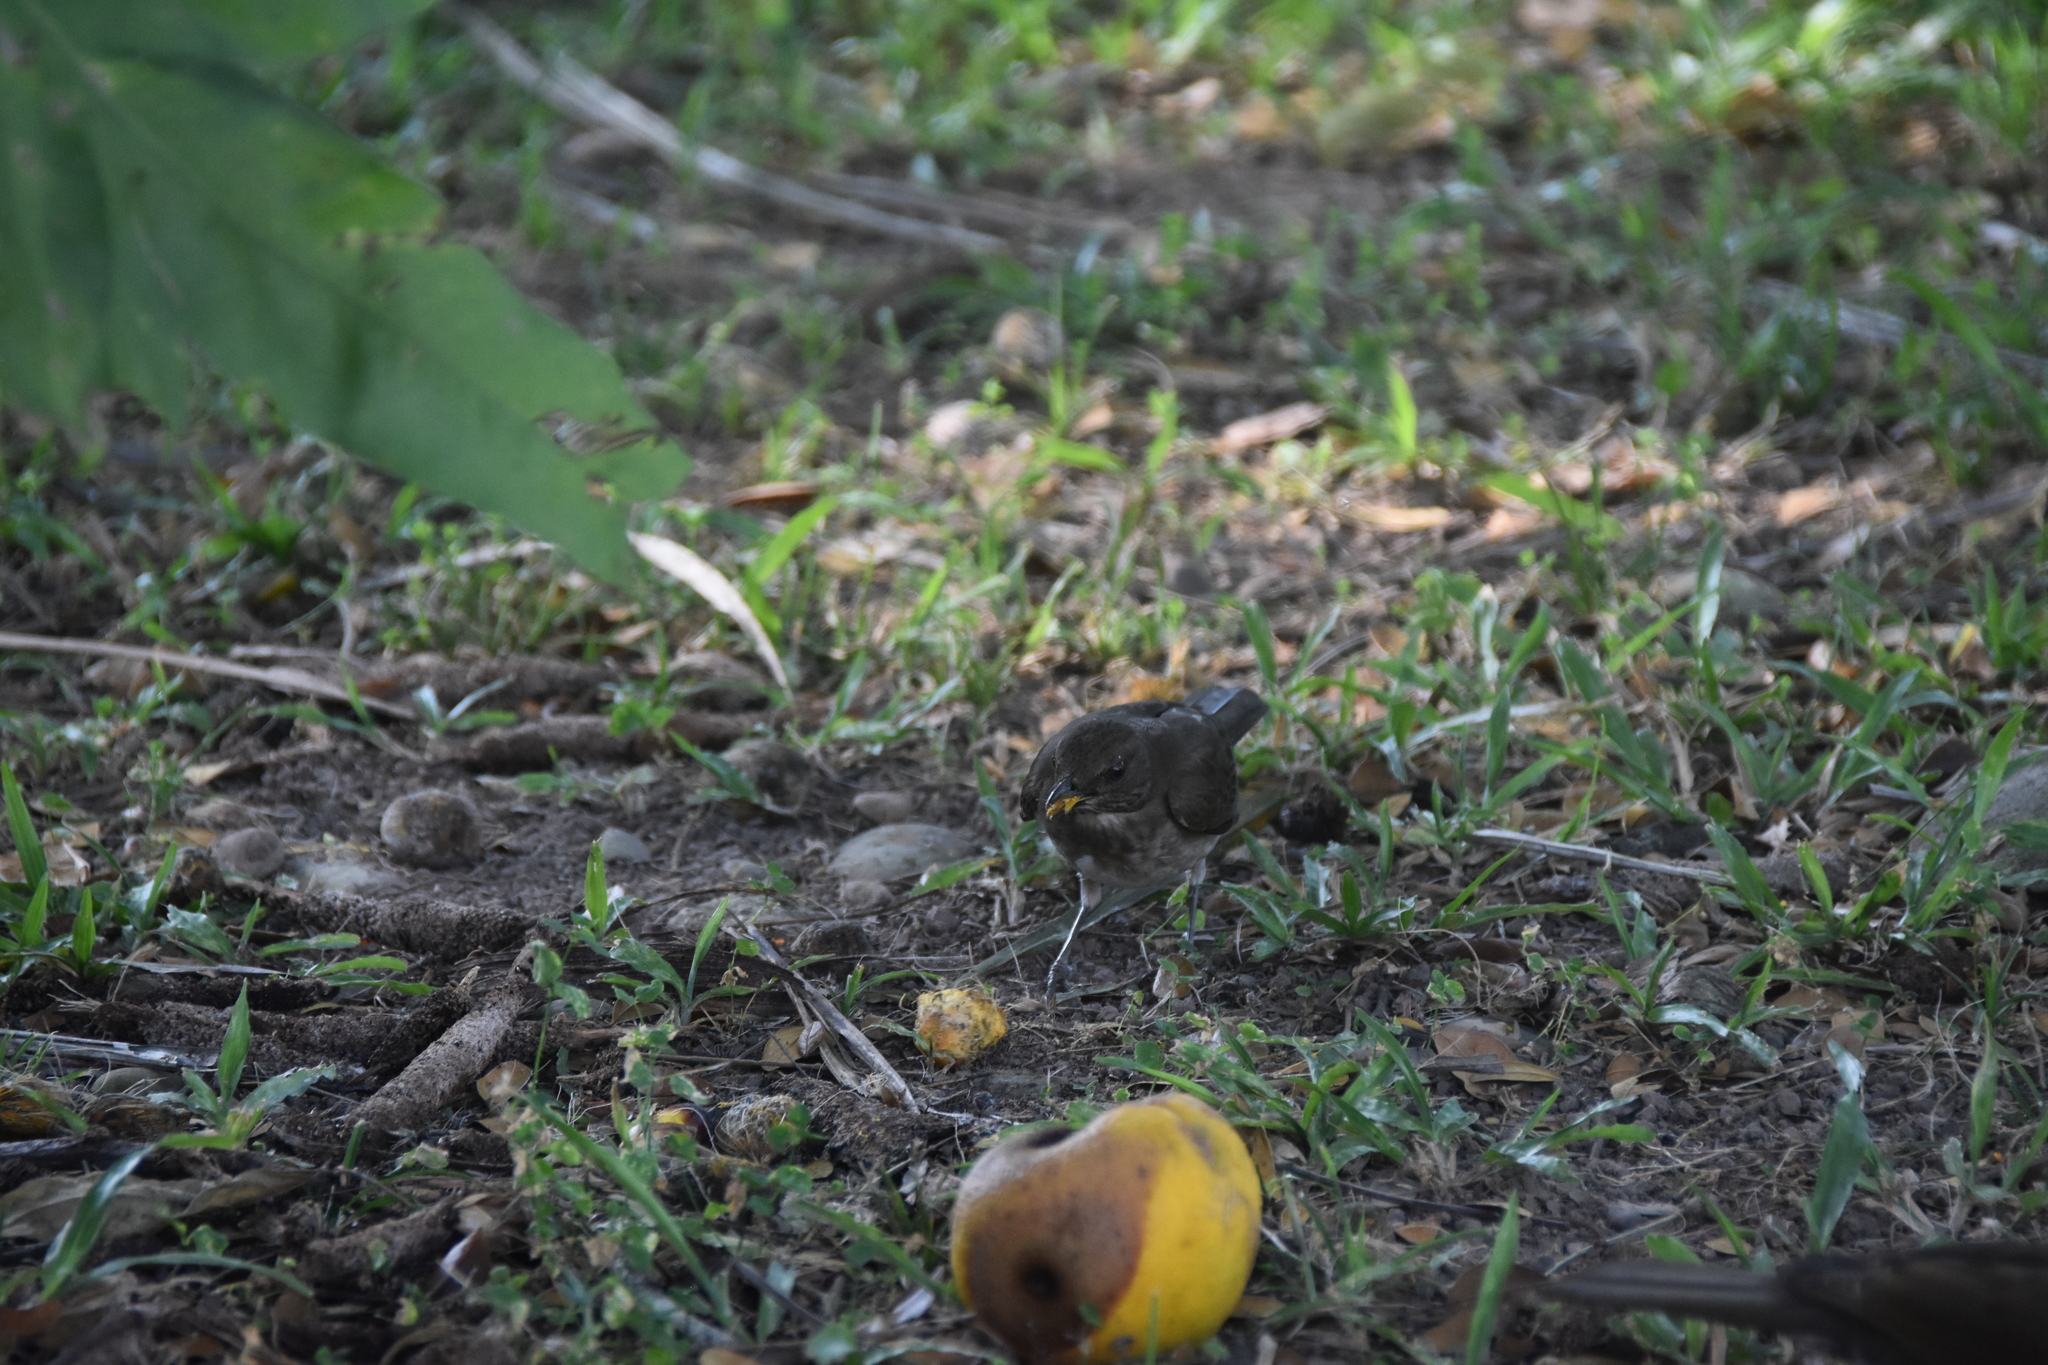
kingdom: Animalia
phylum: Chordata
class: Aves
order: Passeriformes
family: Turdidae
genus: Turdus
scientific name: Turdus ignobilis
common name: Black-billed thrush
